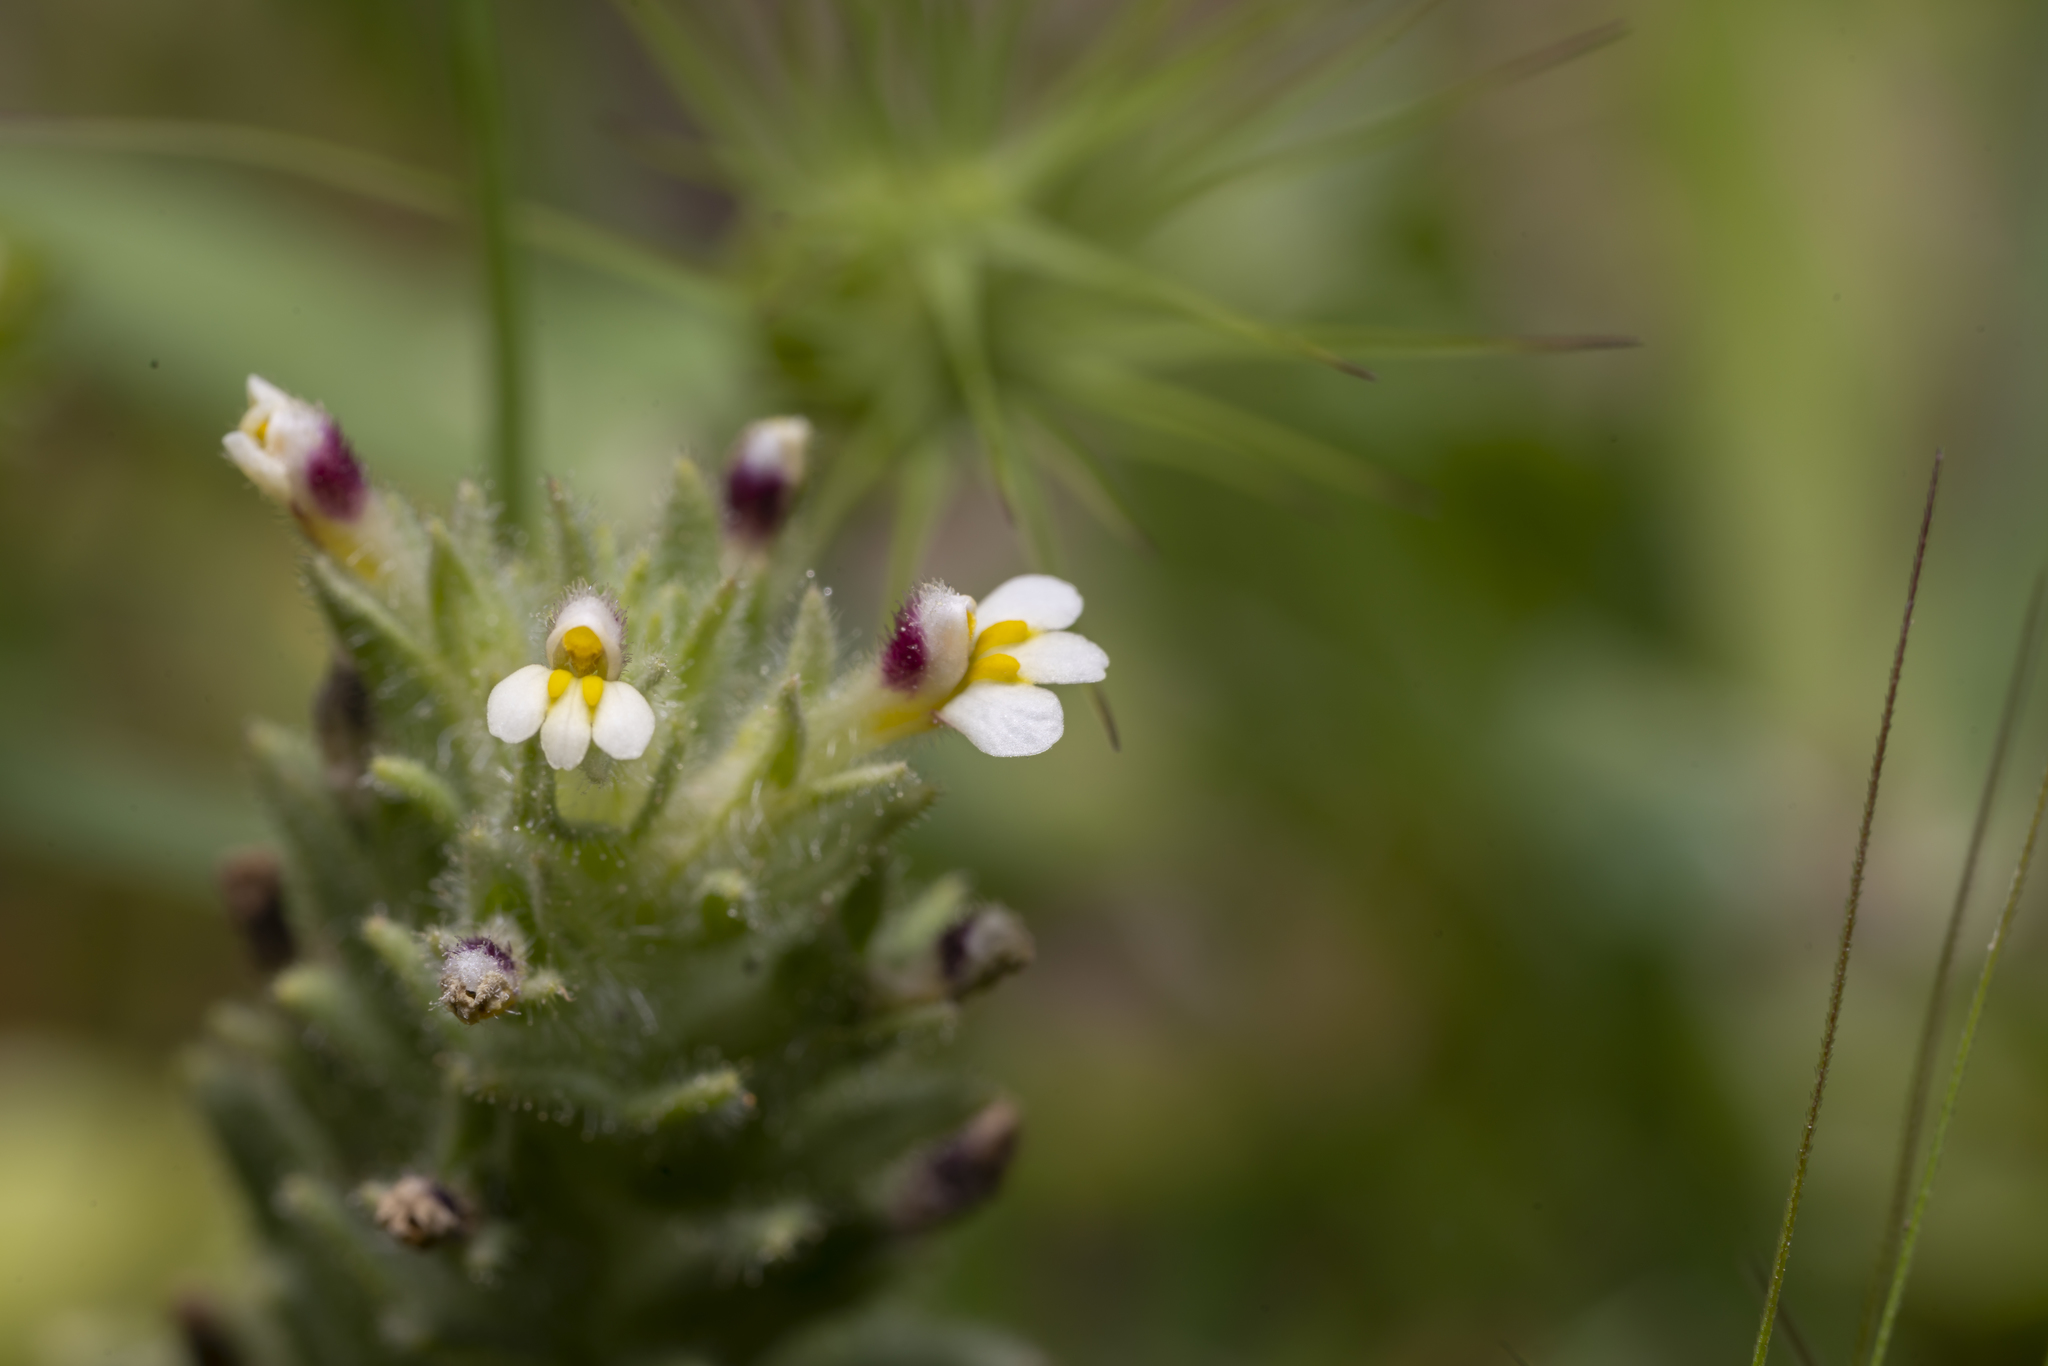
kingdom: Plantae
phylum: Tracheophyta
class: Magnoliopsida
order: Lamiales
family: Orobanchaceae
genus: Parentucellia
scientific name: Parentucellia latifolia
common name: Broadleaf glandweed
